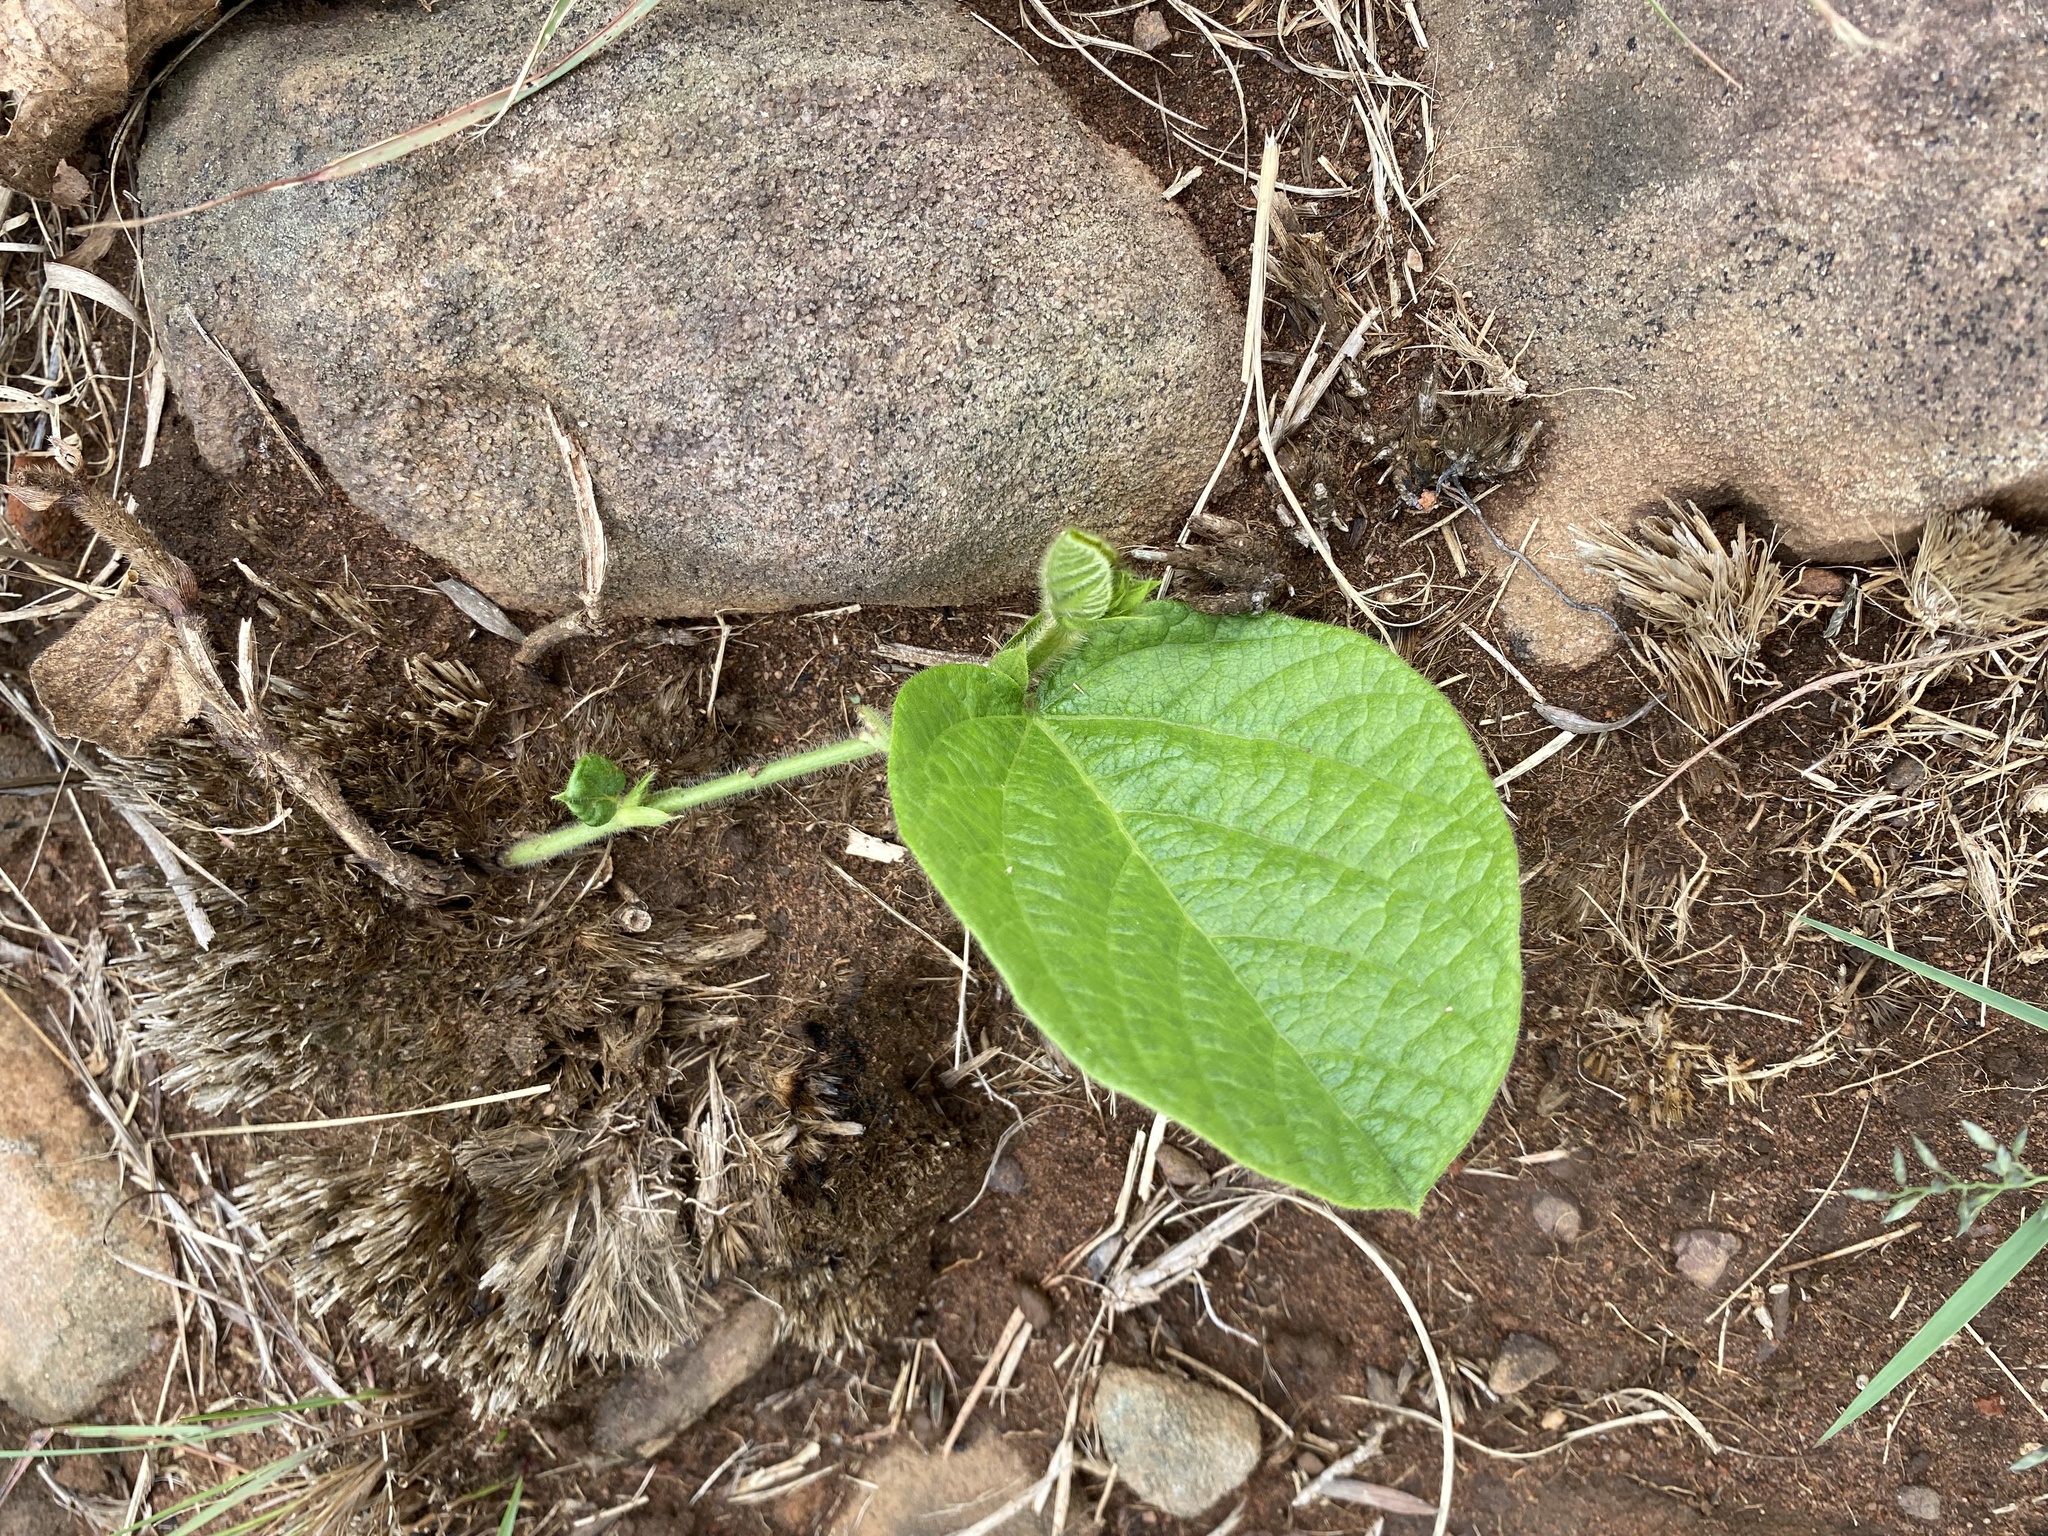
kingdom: Plantae
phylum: Tracheophyta
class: Magnoliopsida
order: Fabales
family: Fabaceae
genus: Eriosema
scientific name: Eriosema cordatum
